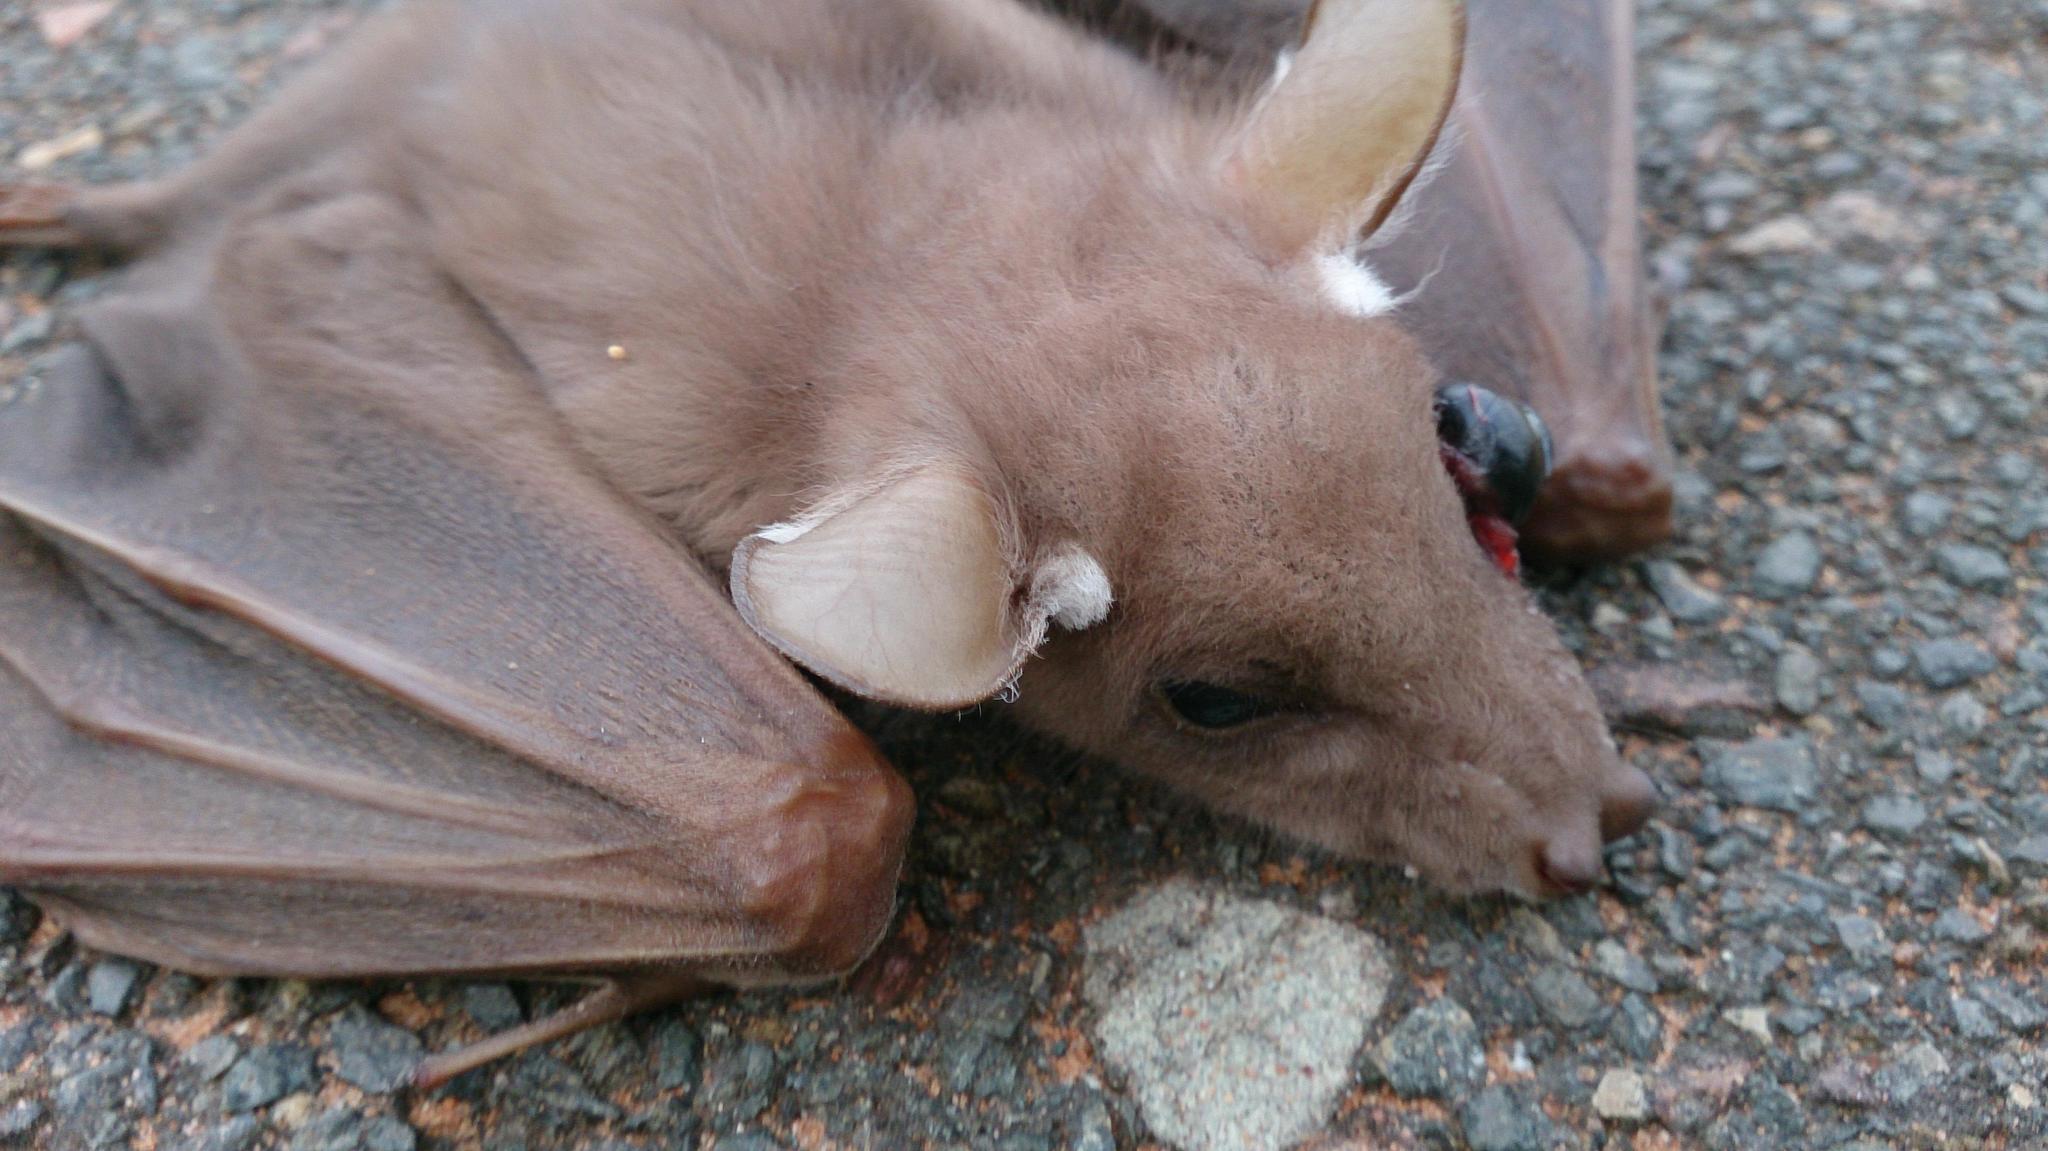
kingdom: Animalia
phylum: Chordata
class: Mammalia
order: Chiroptera
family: Pteropodidae
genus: Epomophorus
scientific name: Epomophorus wahlbergi
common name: Wahlberg's epauletted fruit bat
